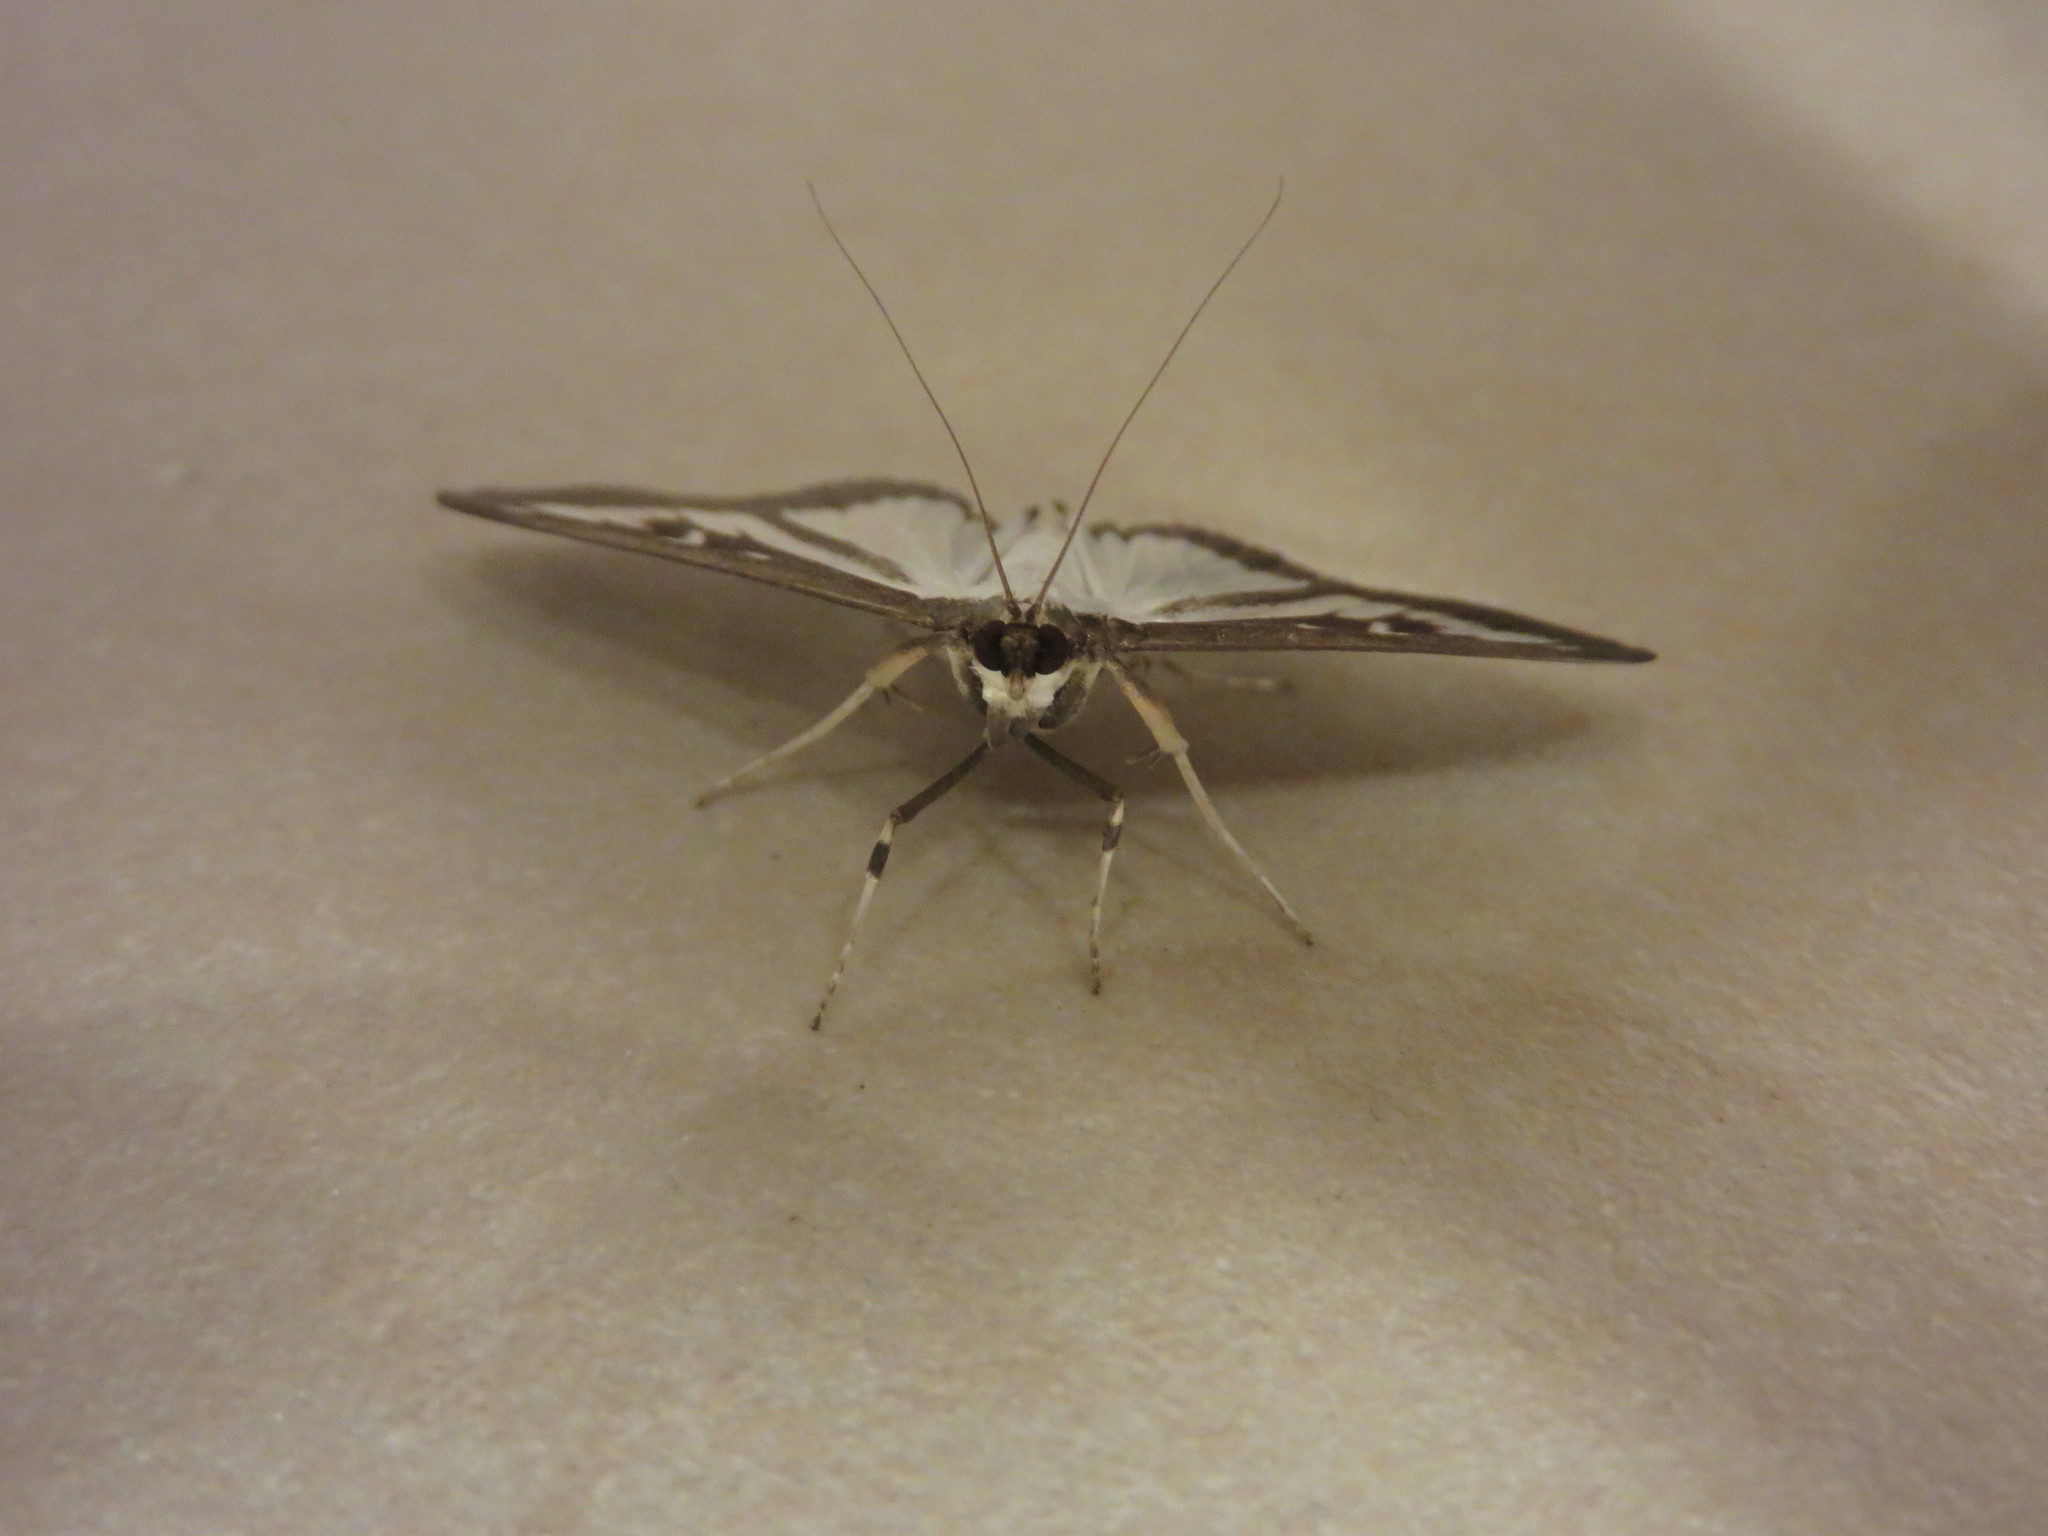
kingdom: Animalia
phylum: Arthropoda
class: Insecta
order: Lepidoptera
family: Crambidae
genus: Cydalima
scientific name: Cydalima perspectalis
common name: Box tree moth
